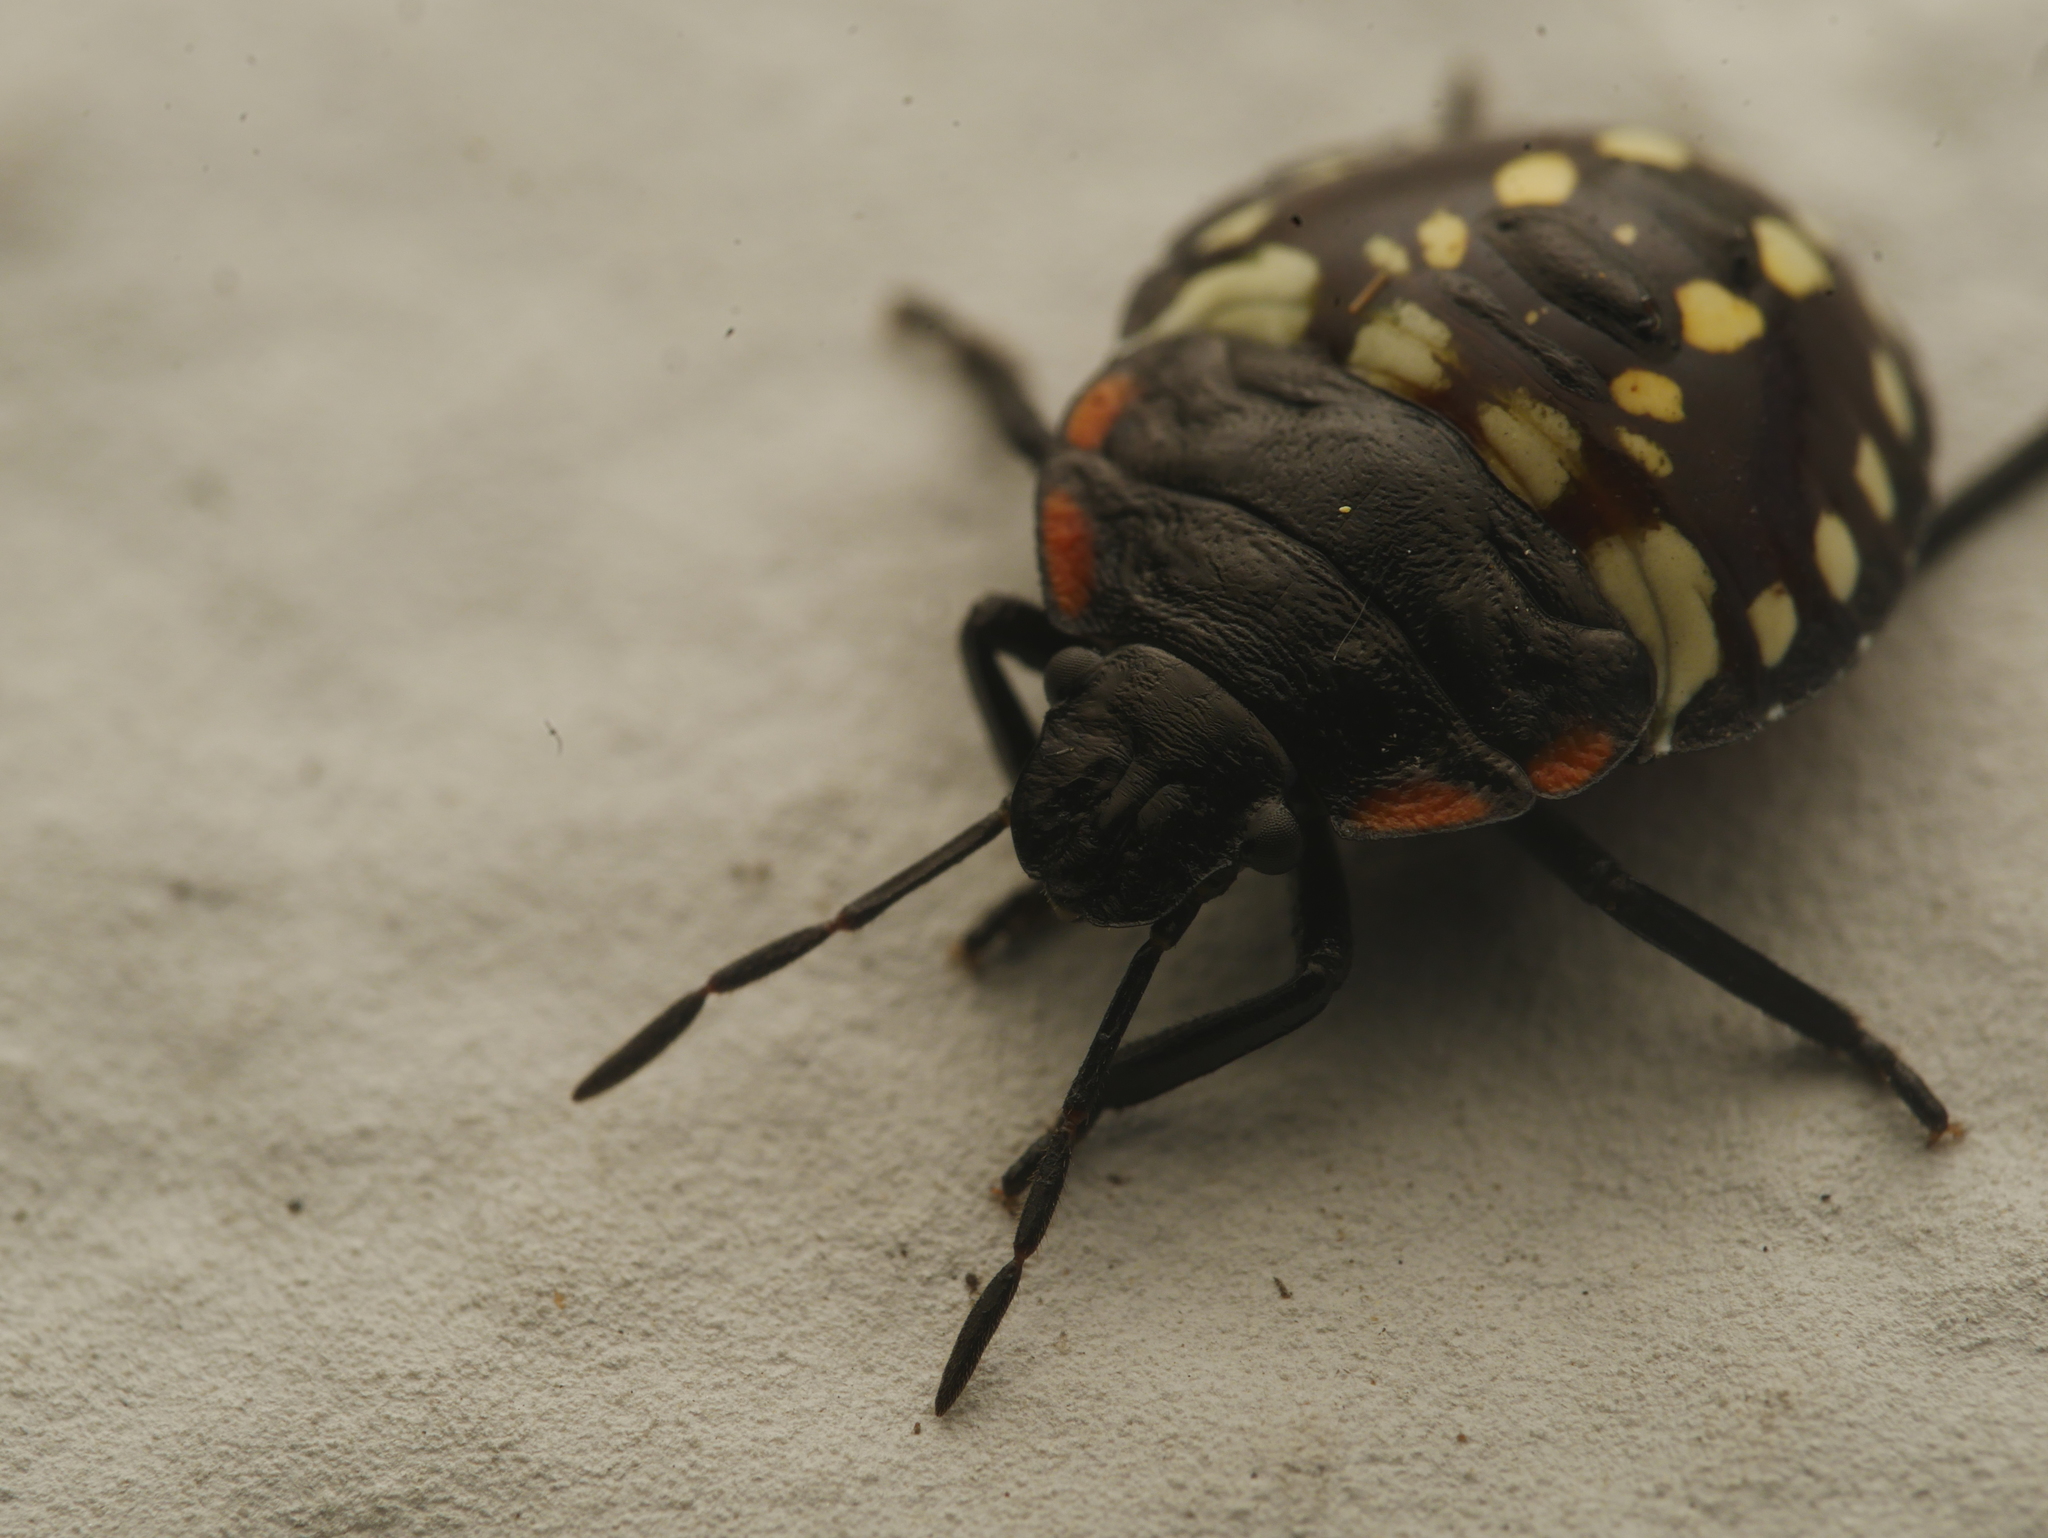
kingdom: Animalia
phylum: Arthropoda
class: Insecta
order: Hemiptera
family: Pentatomidae
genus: Nezara
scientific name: Nezara viridula
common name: Southern green stink bug
